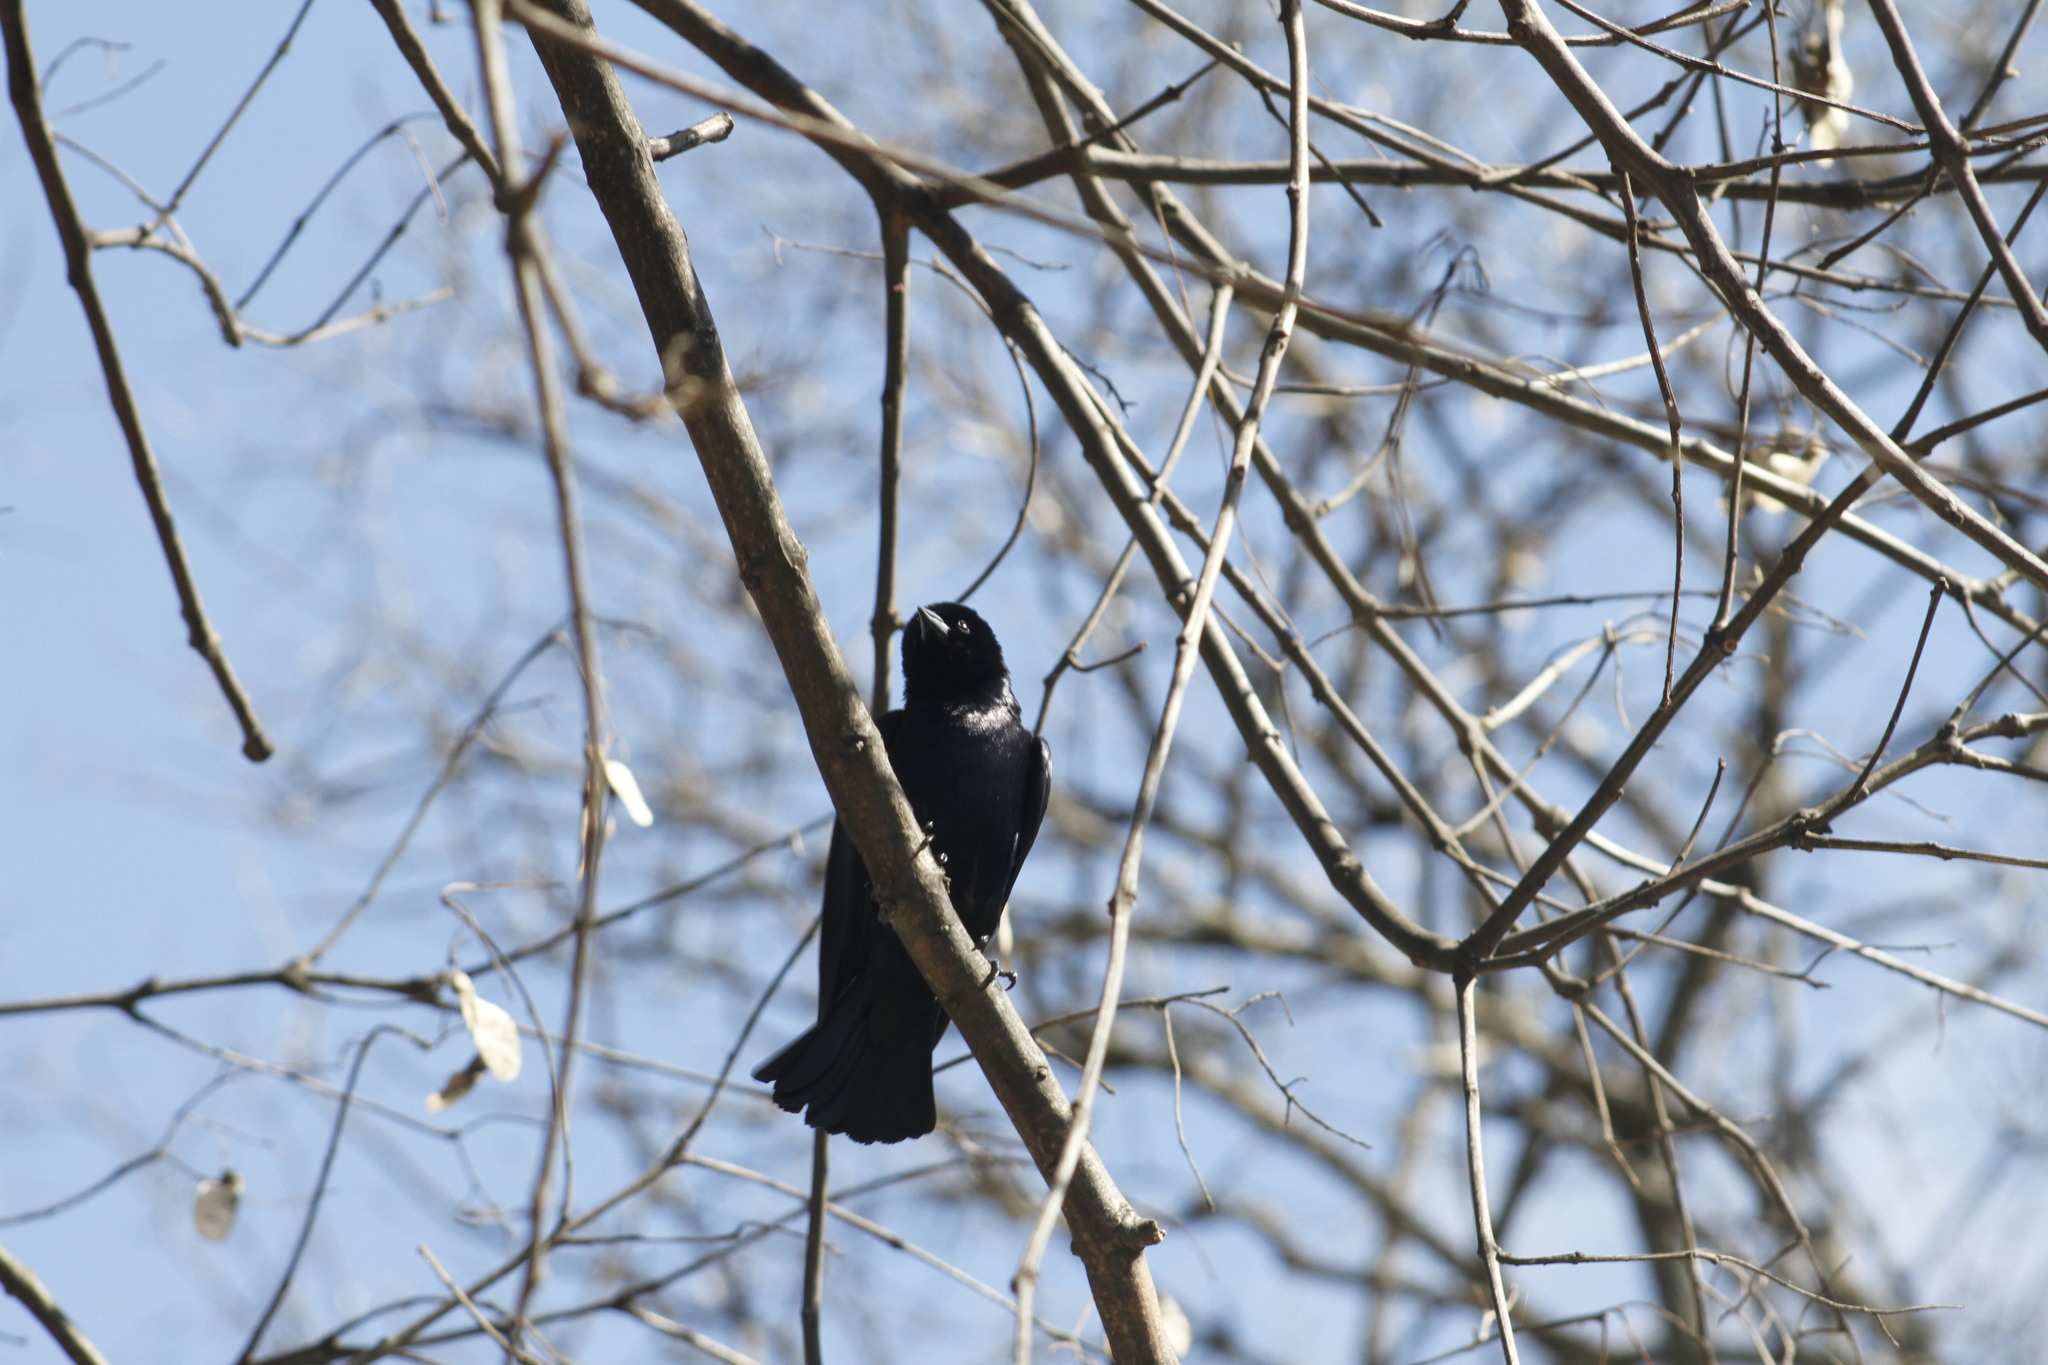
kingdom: Animalia
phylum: Chordata
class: Aves
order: Passeriformes
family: Icteridae
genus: Molothrus
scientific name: Molothrus bonariensis
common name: Shiny cowbird
